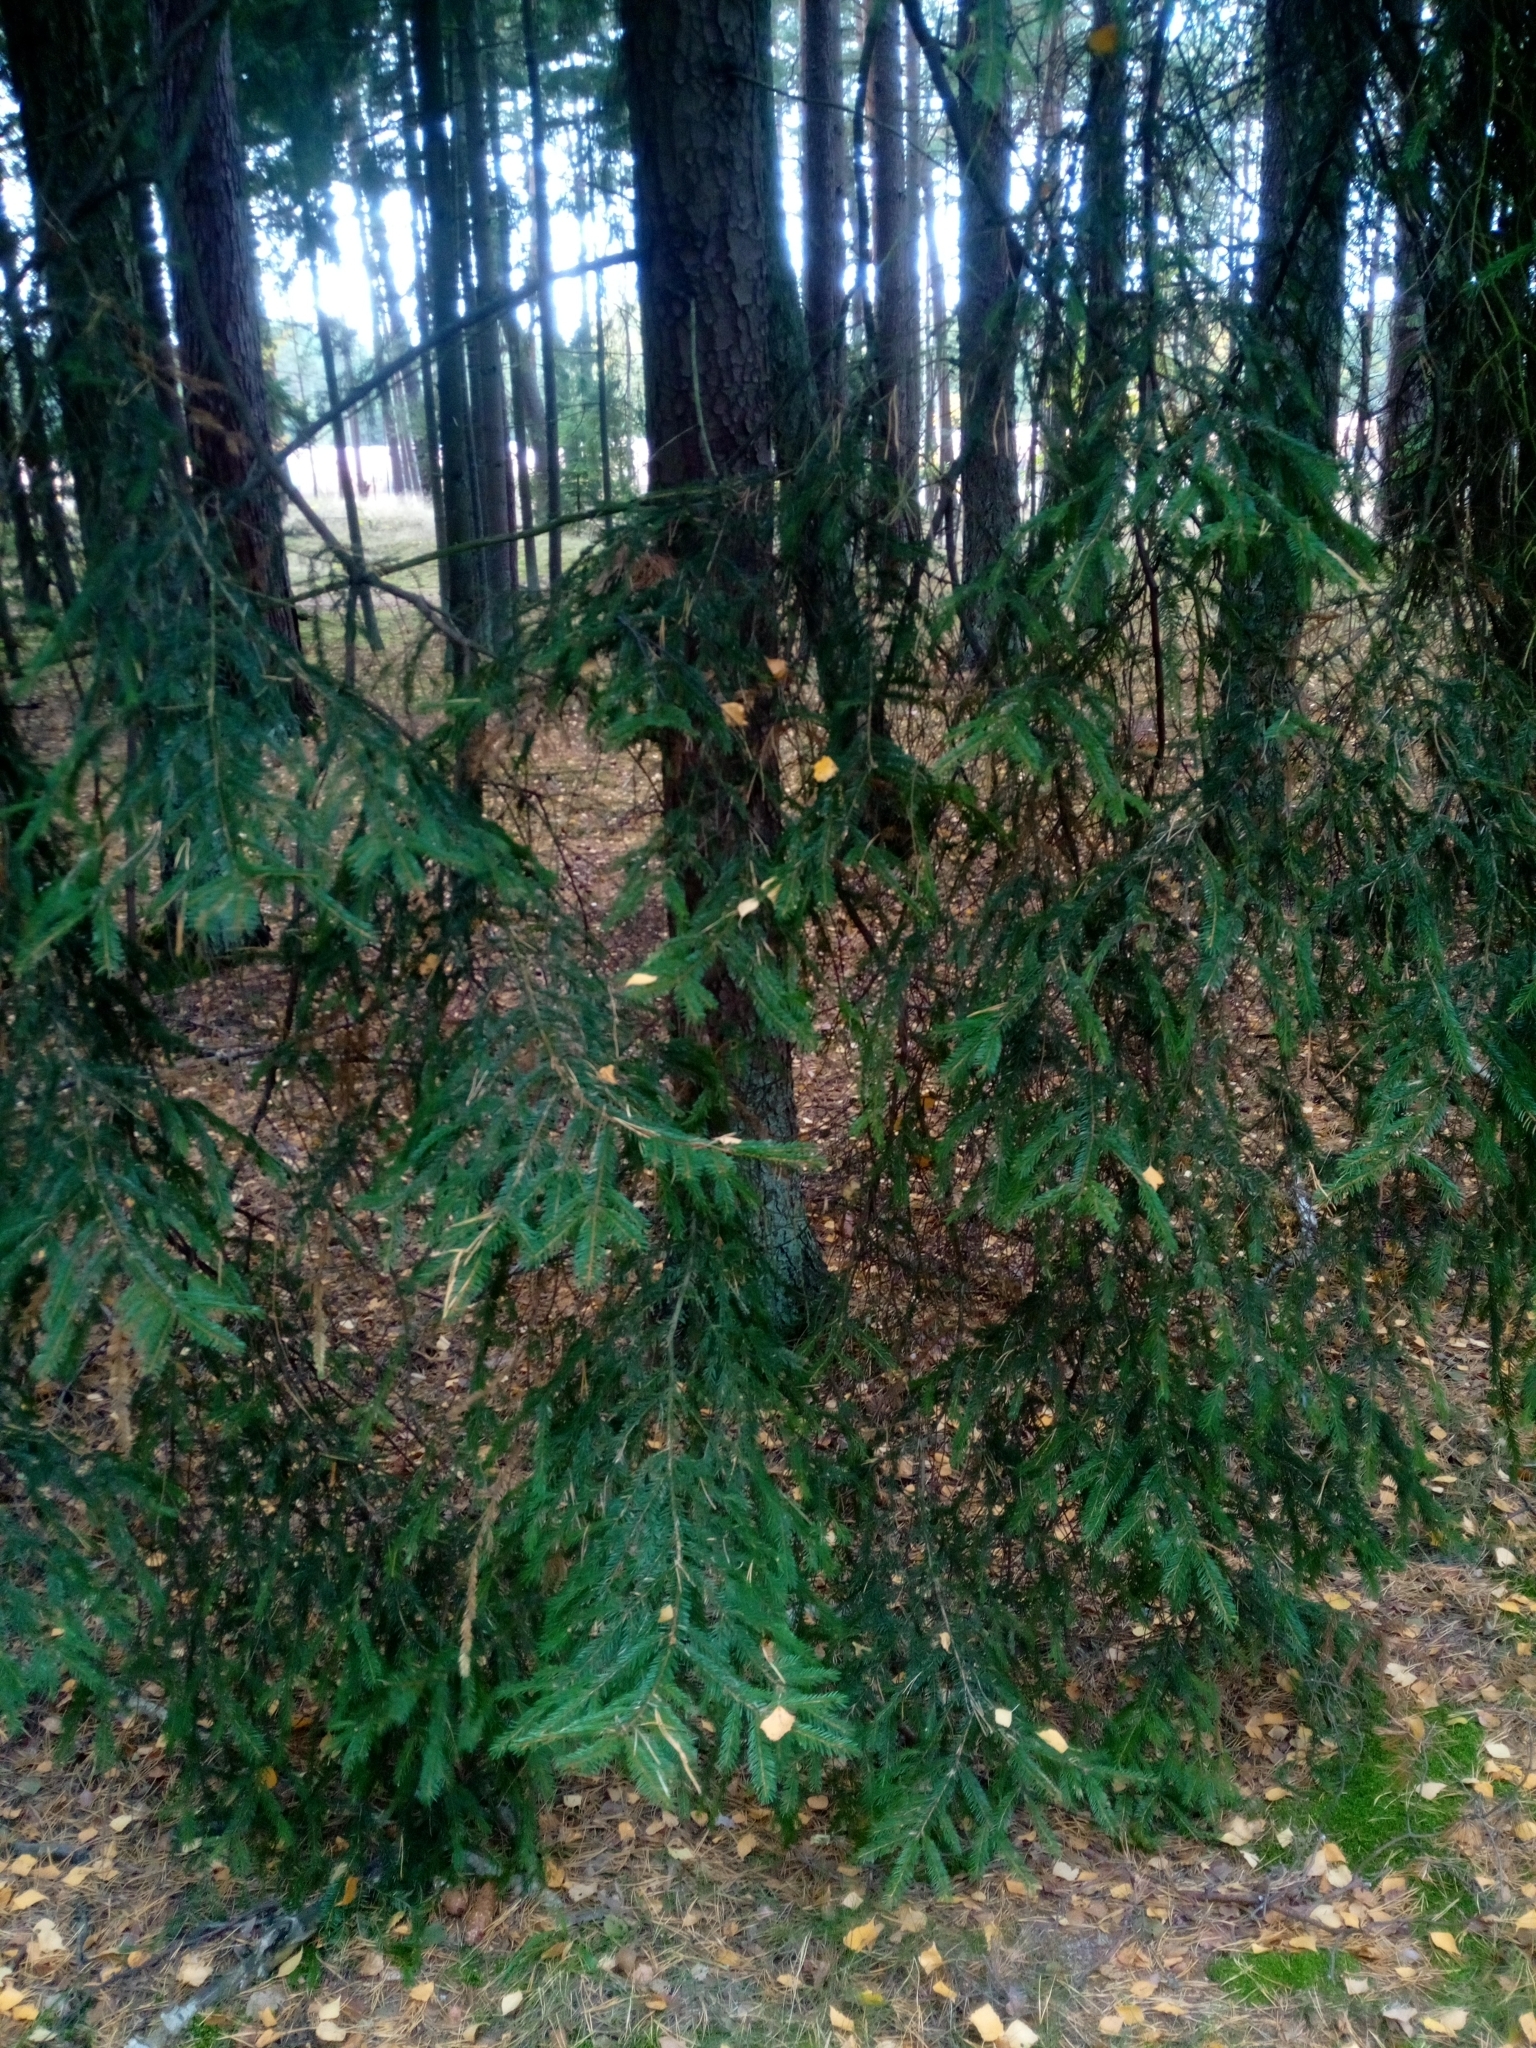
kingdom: Plantae
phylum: Tracheophyta
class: Pinopsida
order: Pinales
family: Pinaceae
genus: Picea
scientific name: Picea abies
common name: Norway spruce
